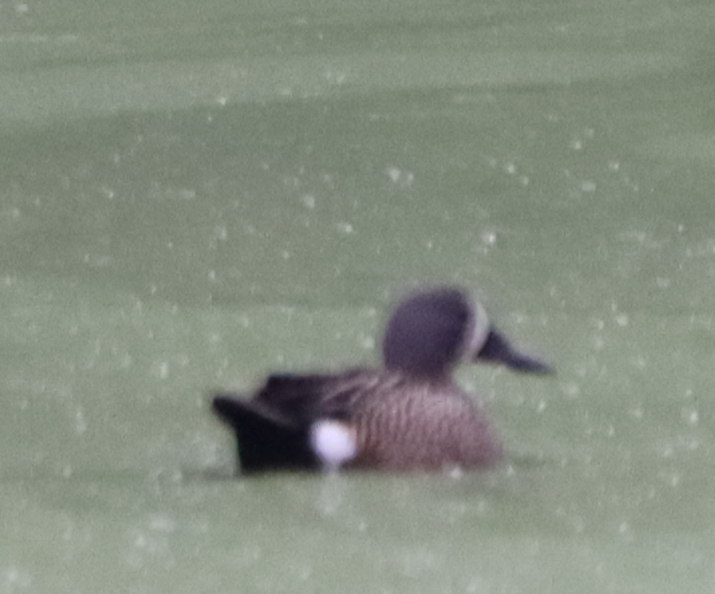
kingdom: Animalia
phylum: Chordata
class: Aves
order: Anseriformes
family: Anatidae
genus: Spatula
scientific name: Spatula discors
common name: Blue-winged teal
